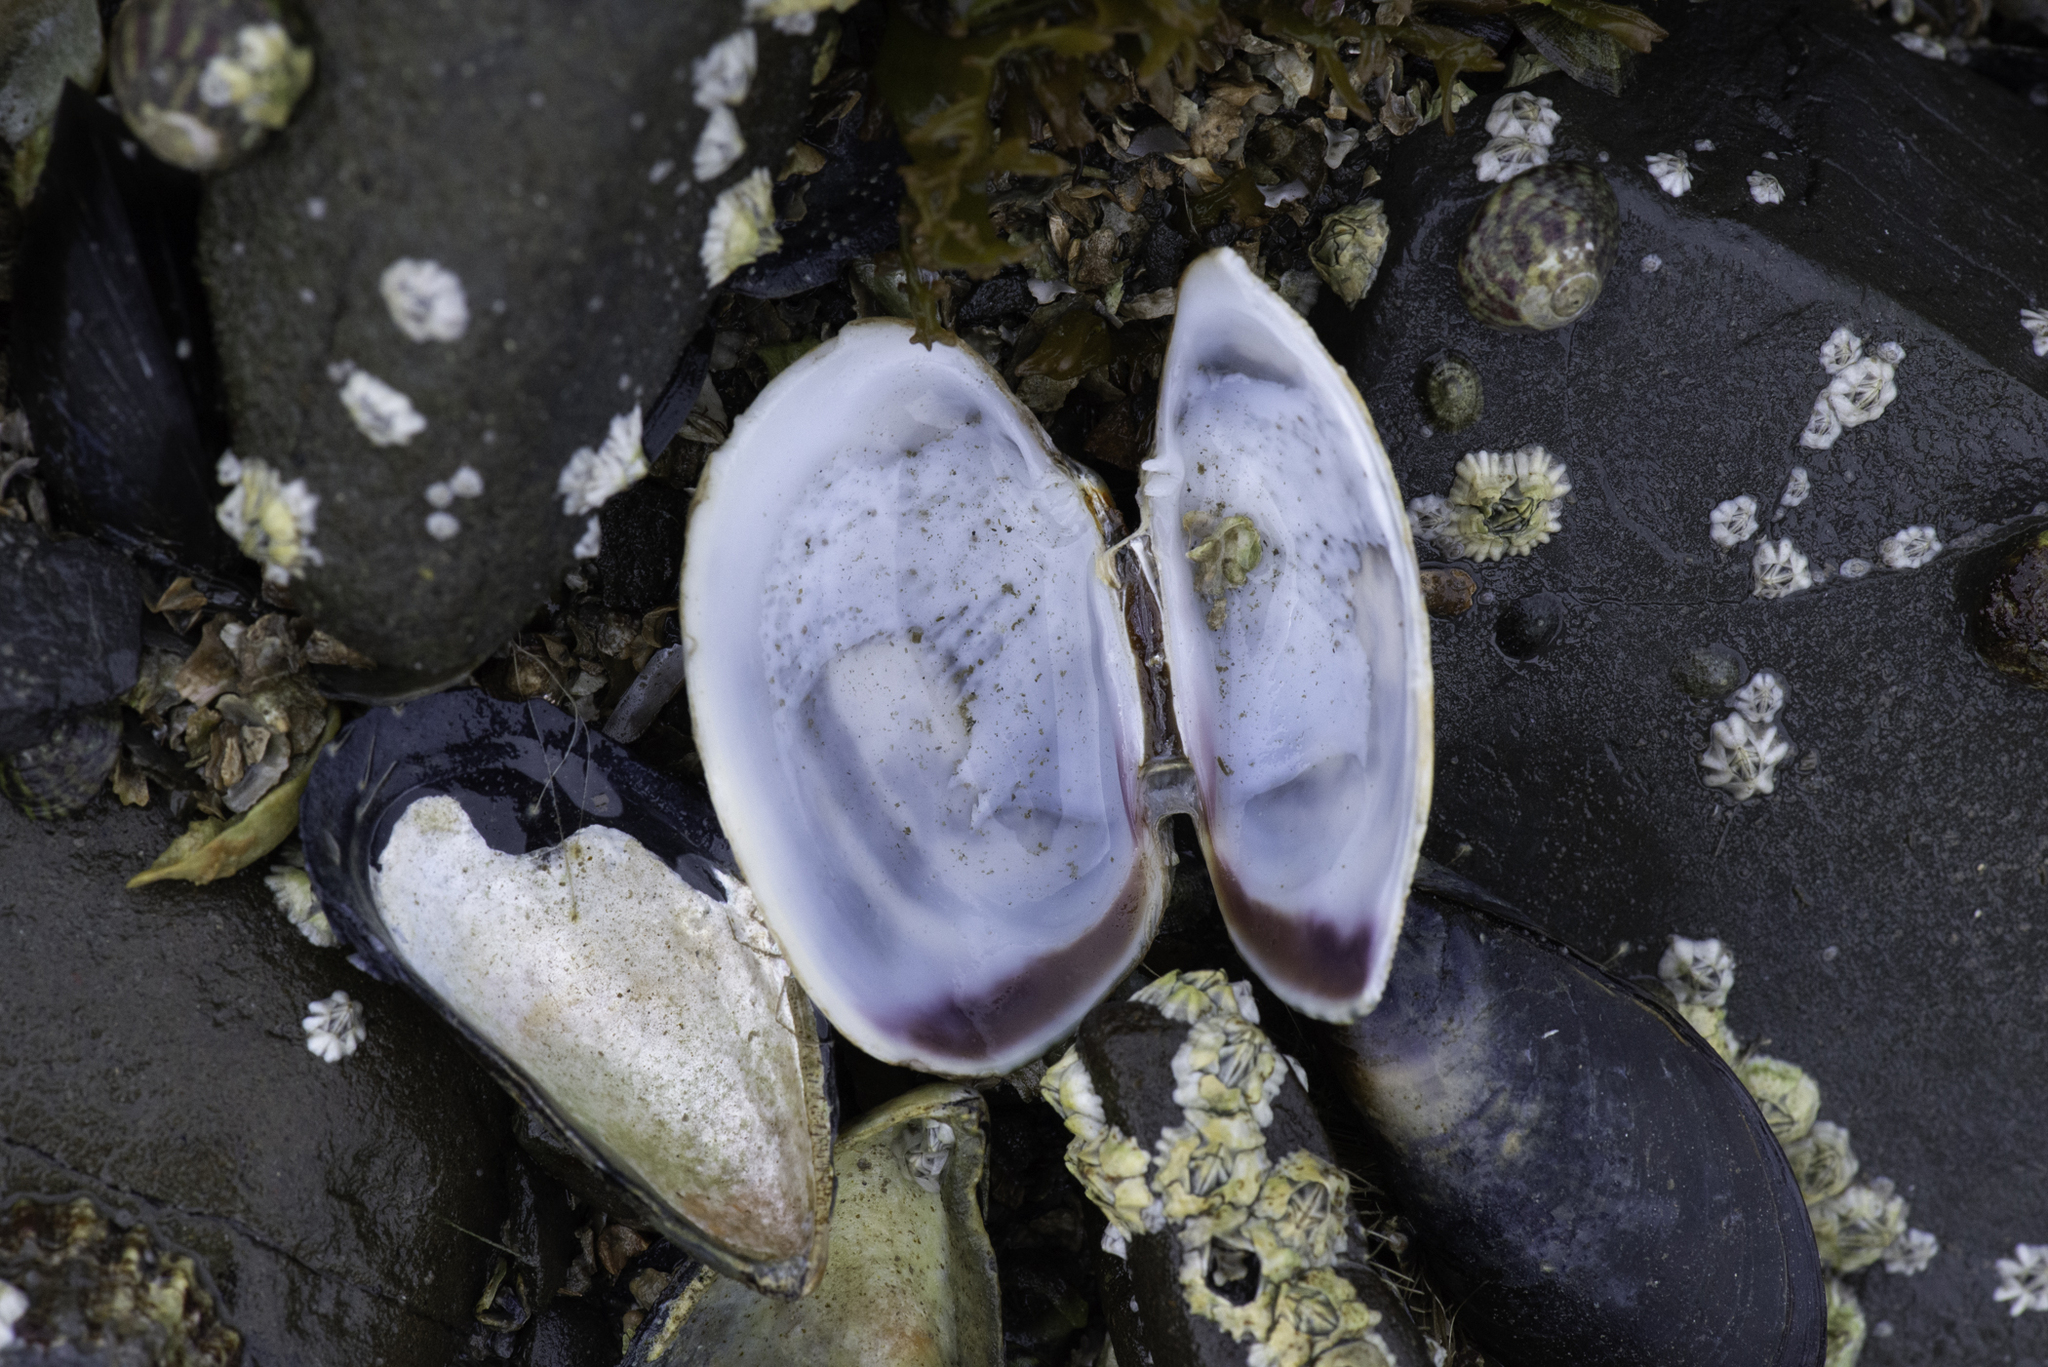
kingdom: Animalia
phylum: Mollusca
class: Bivalvia
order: Venerida
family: Veneridae
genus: Venerupis
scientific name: Venerupis corrugata
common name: Pullet carpet shell
